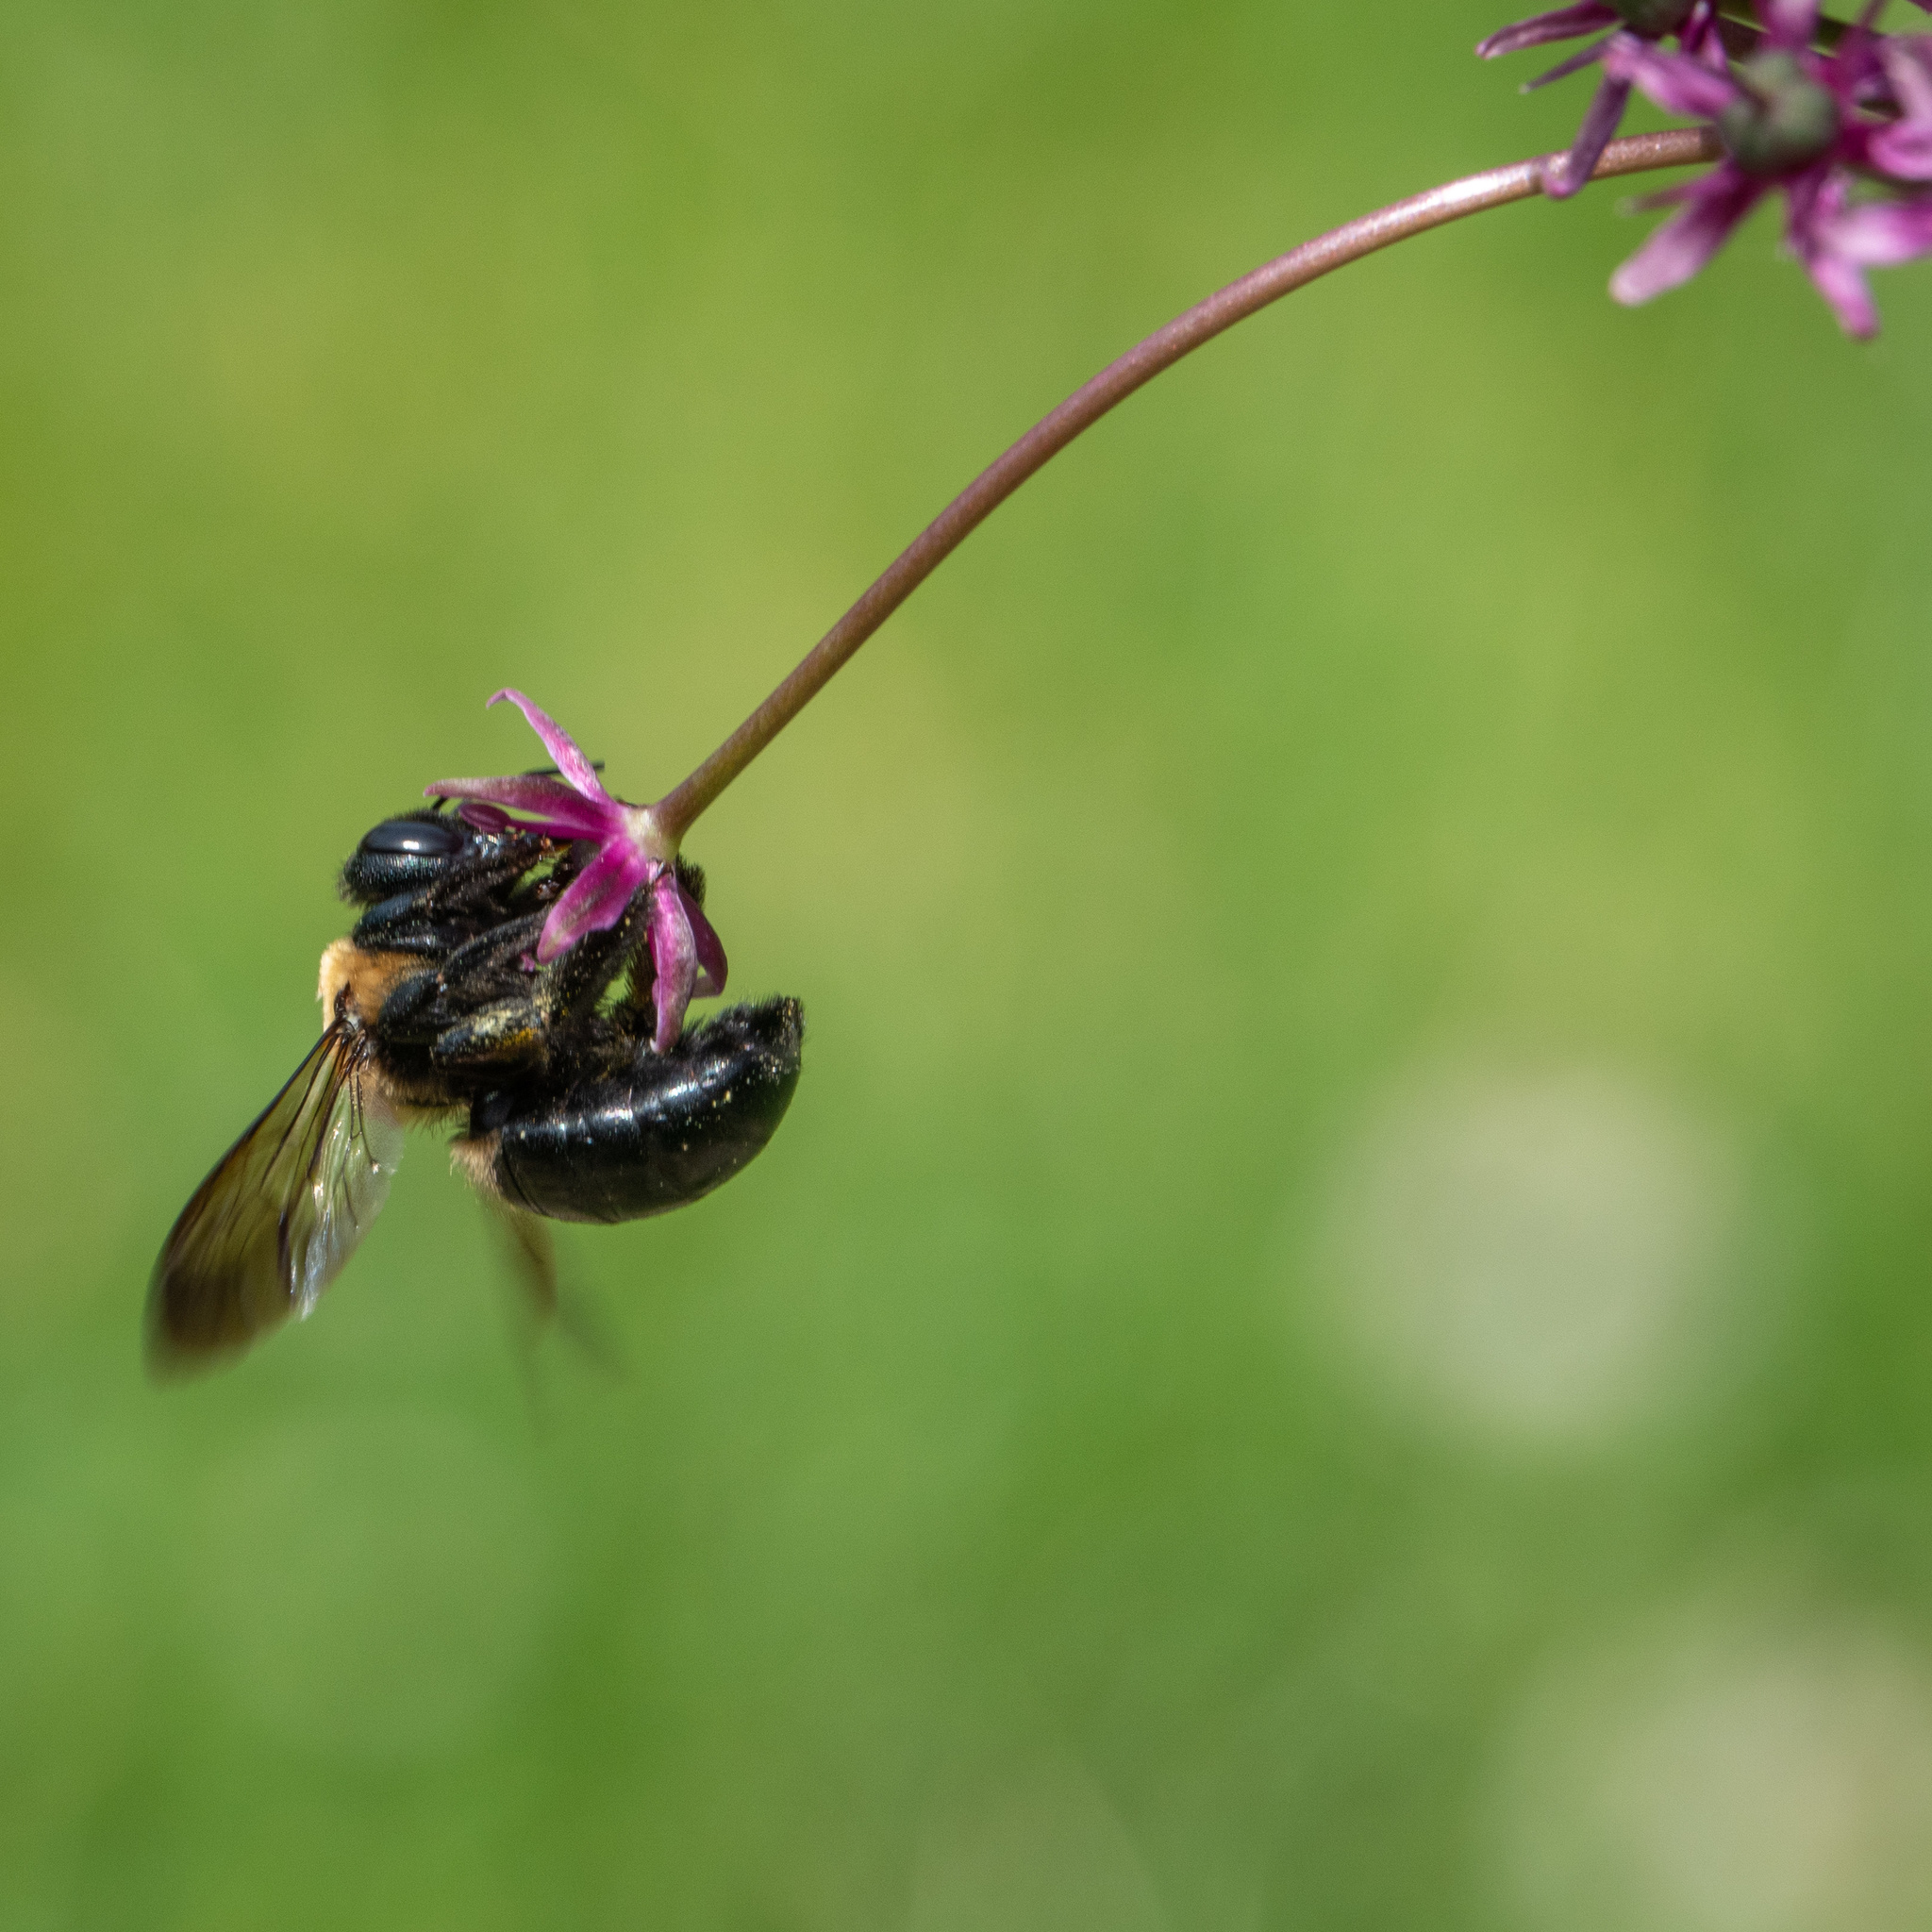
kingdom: Animalia
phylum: Arthropoda
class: Insecta
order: Hymenoptera
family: Apidae
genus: Xylocopa
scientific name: Xylocopa virginica
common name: Carpenter bee
